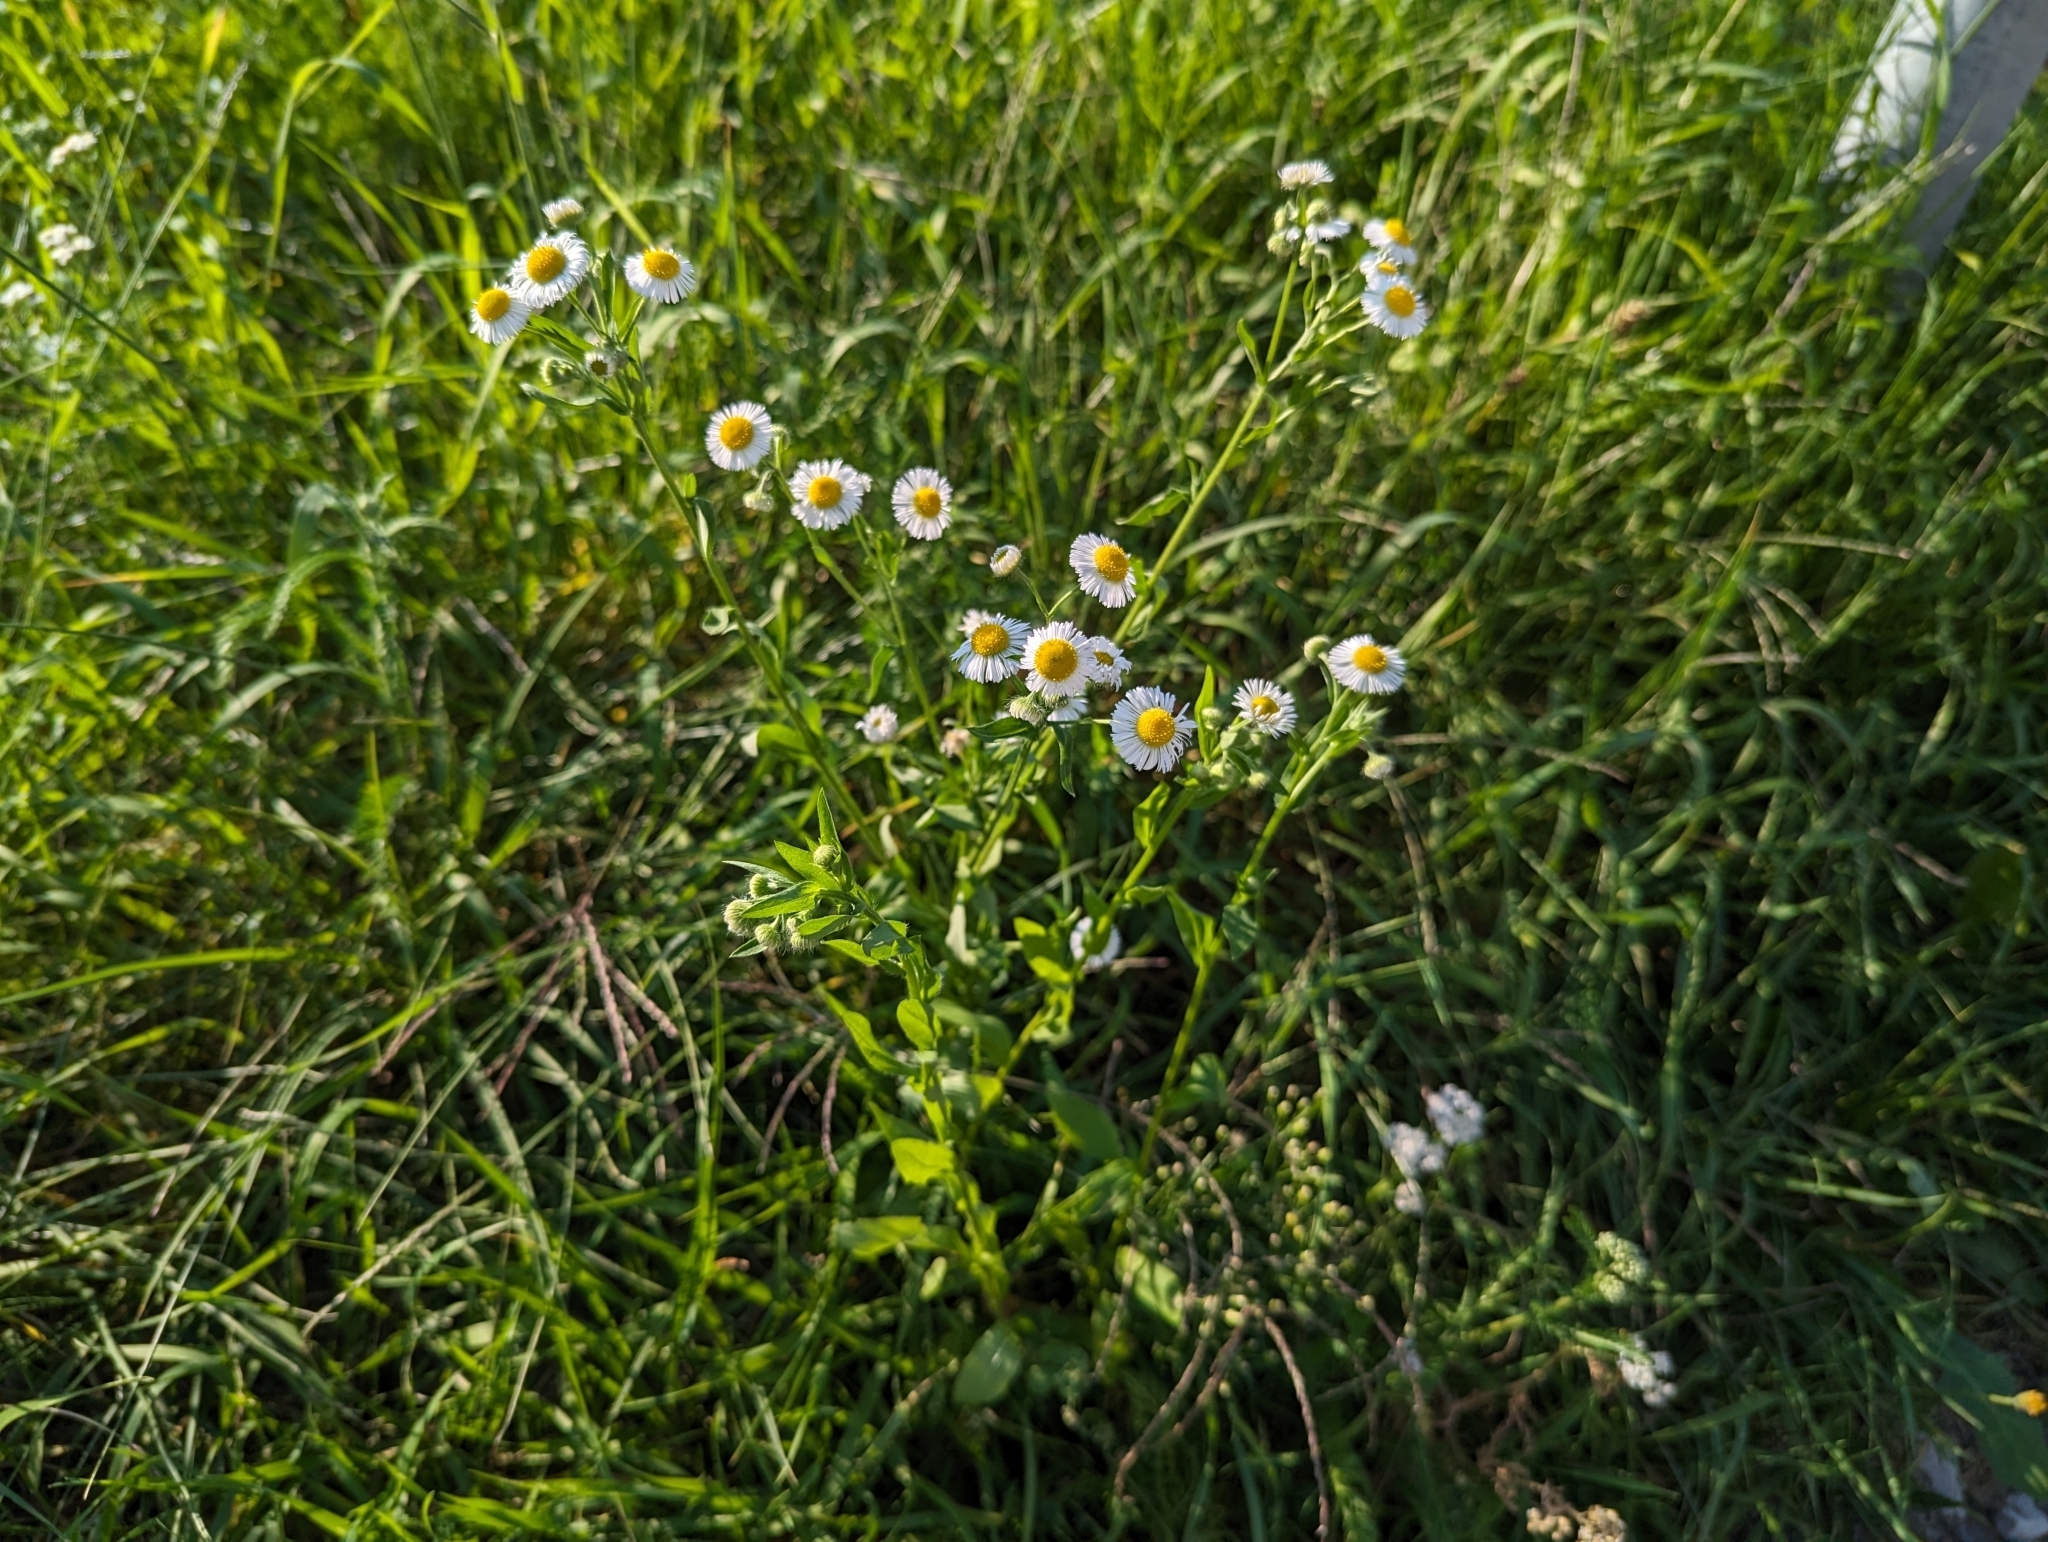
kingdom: Plantae
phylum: Tracheophyta
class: Magnoliopsida
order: Asterales
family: Asteraceae
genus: Erigeron
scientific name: Erigeron annuus
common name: Tall fleabane
